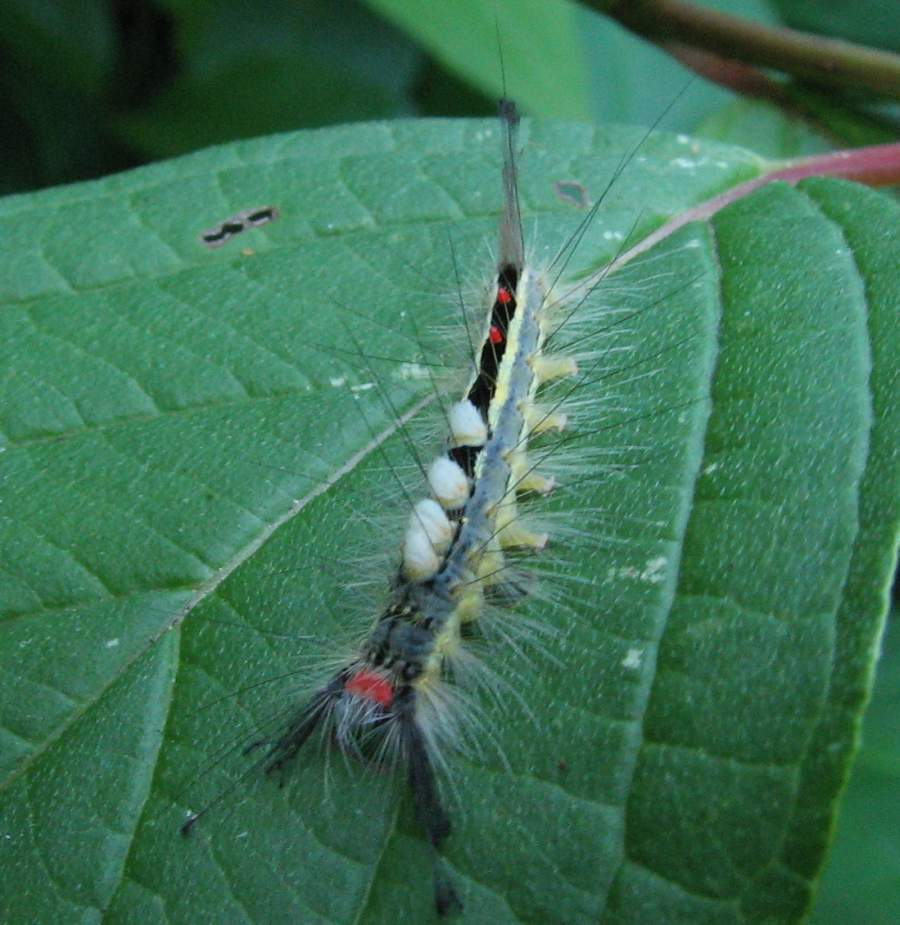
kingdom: Animalia
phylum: Arthropoda
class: Insecta
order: Lepidoptera
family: Erebidae
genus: Orgyia
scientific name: Orgyia leucostigma
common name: White-marked tussock moth
